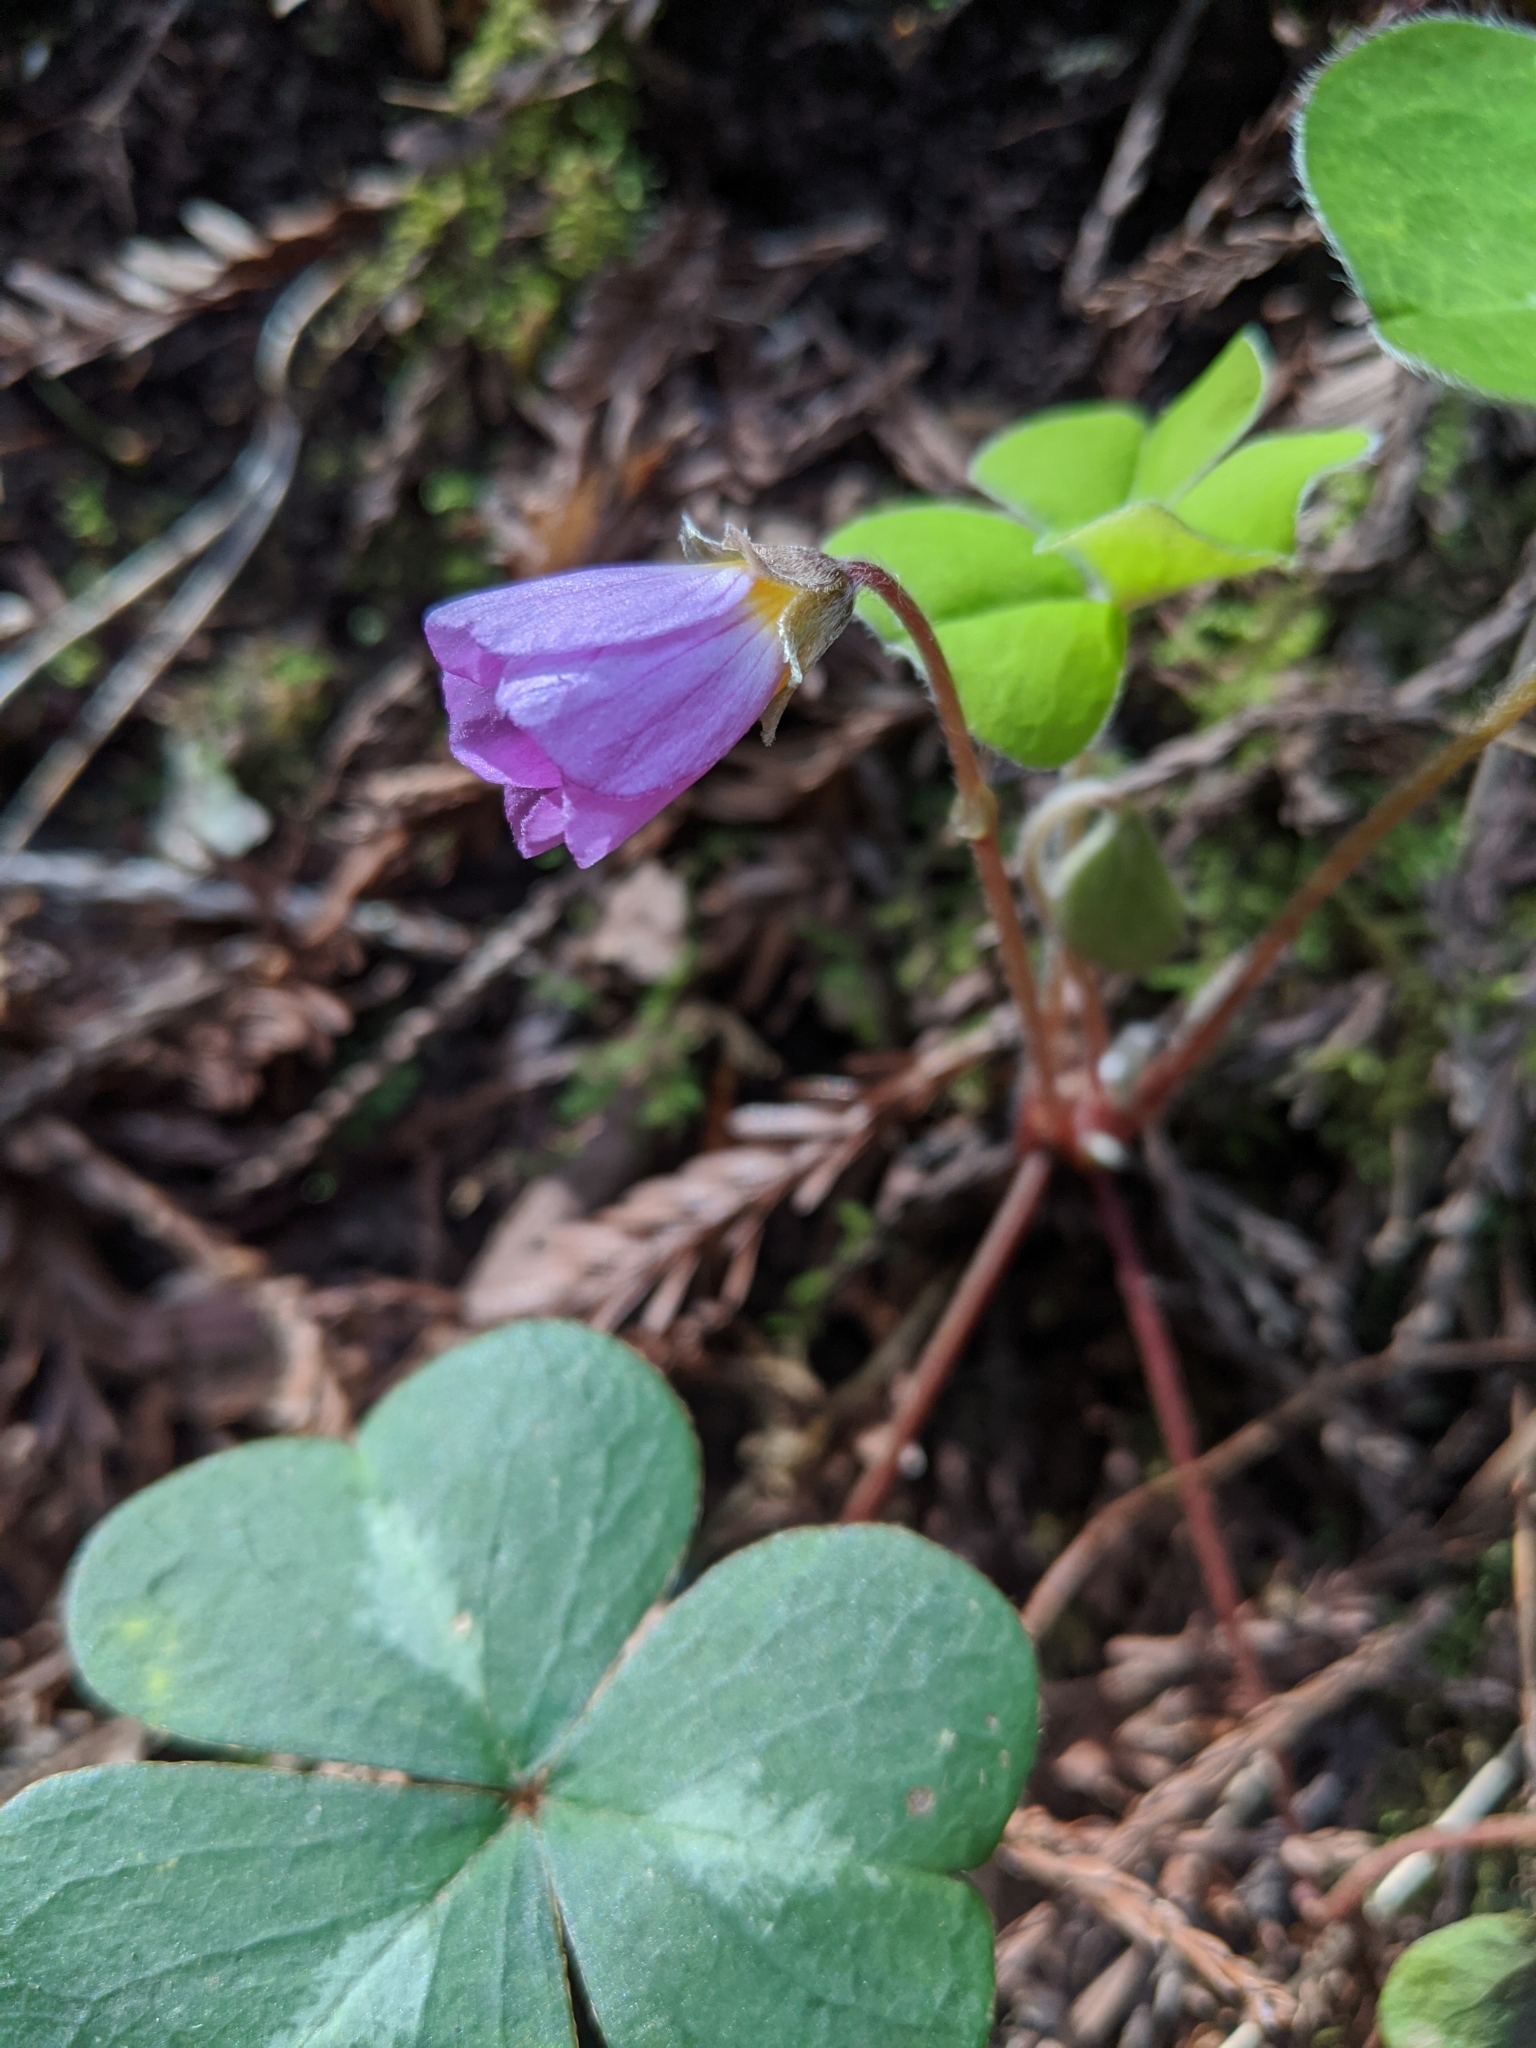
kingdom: Plantae
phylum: Tracheophyta
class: Magnoliopsida
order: Oxalidales
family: Oxalidaceae
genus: Oxalis
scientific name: Oxalis oregana
